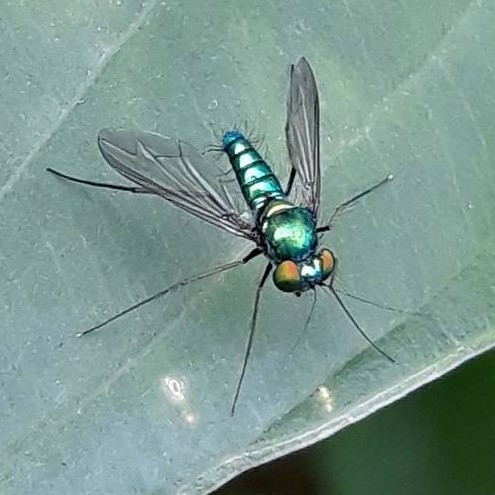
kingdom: Animalia
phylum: Arthropoda
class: Insecta
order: Diptera
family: Dolichopodidae
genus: Condylostylus
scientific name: Condylostylus comatus
